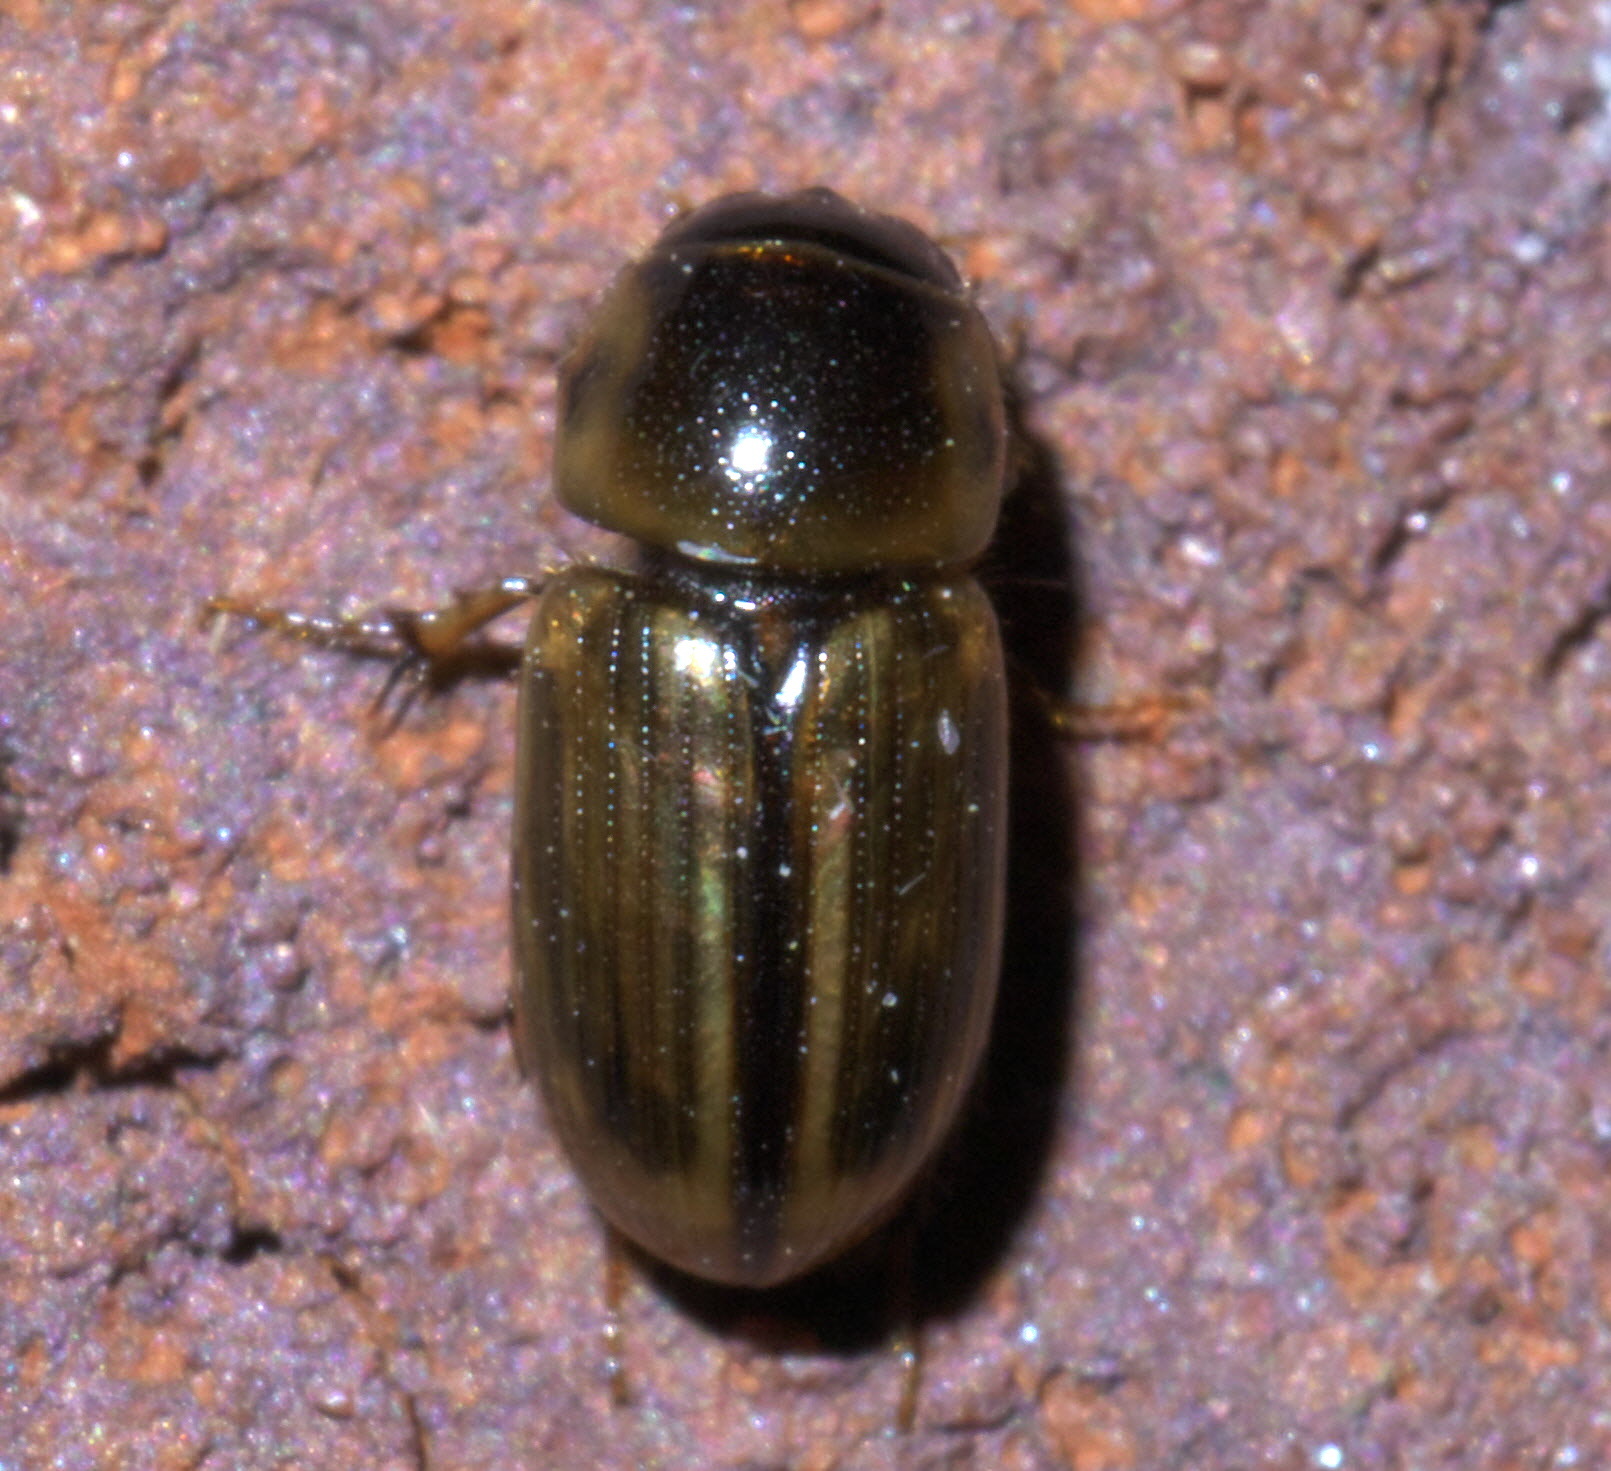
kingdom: Animalia
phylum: Arthropoda
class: Insecta
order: Coleoptera
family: Scarabaeidae
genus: Labarrus
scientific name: Labarrus lividus
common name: Scarab beetle
